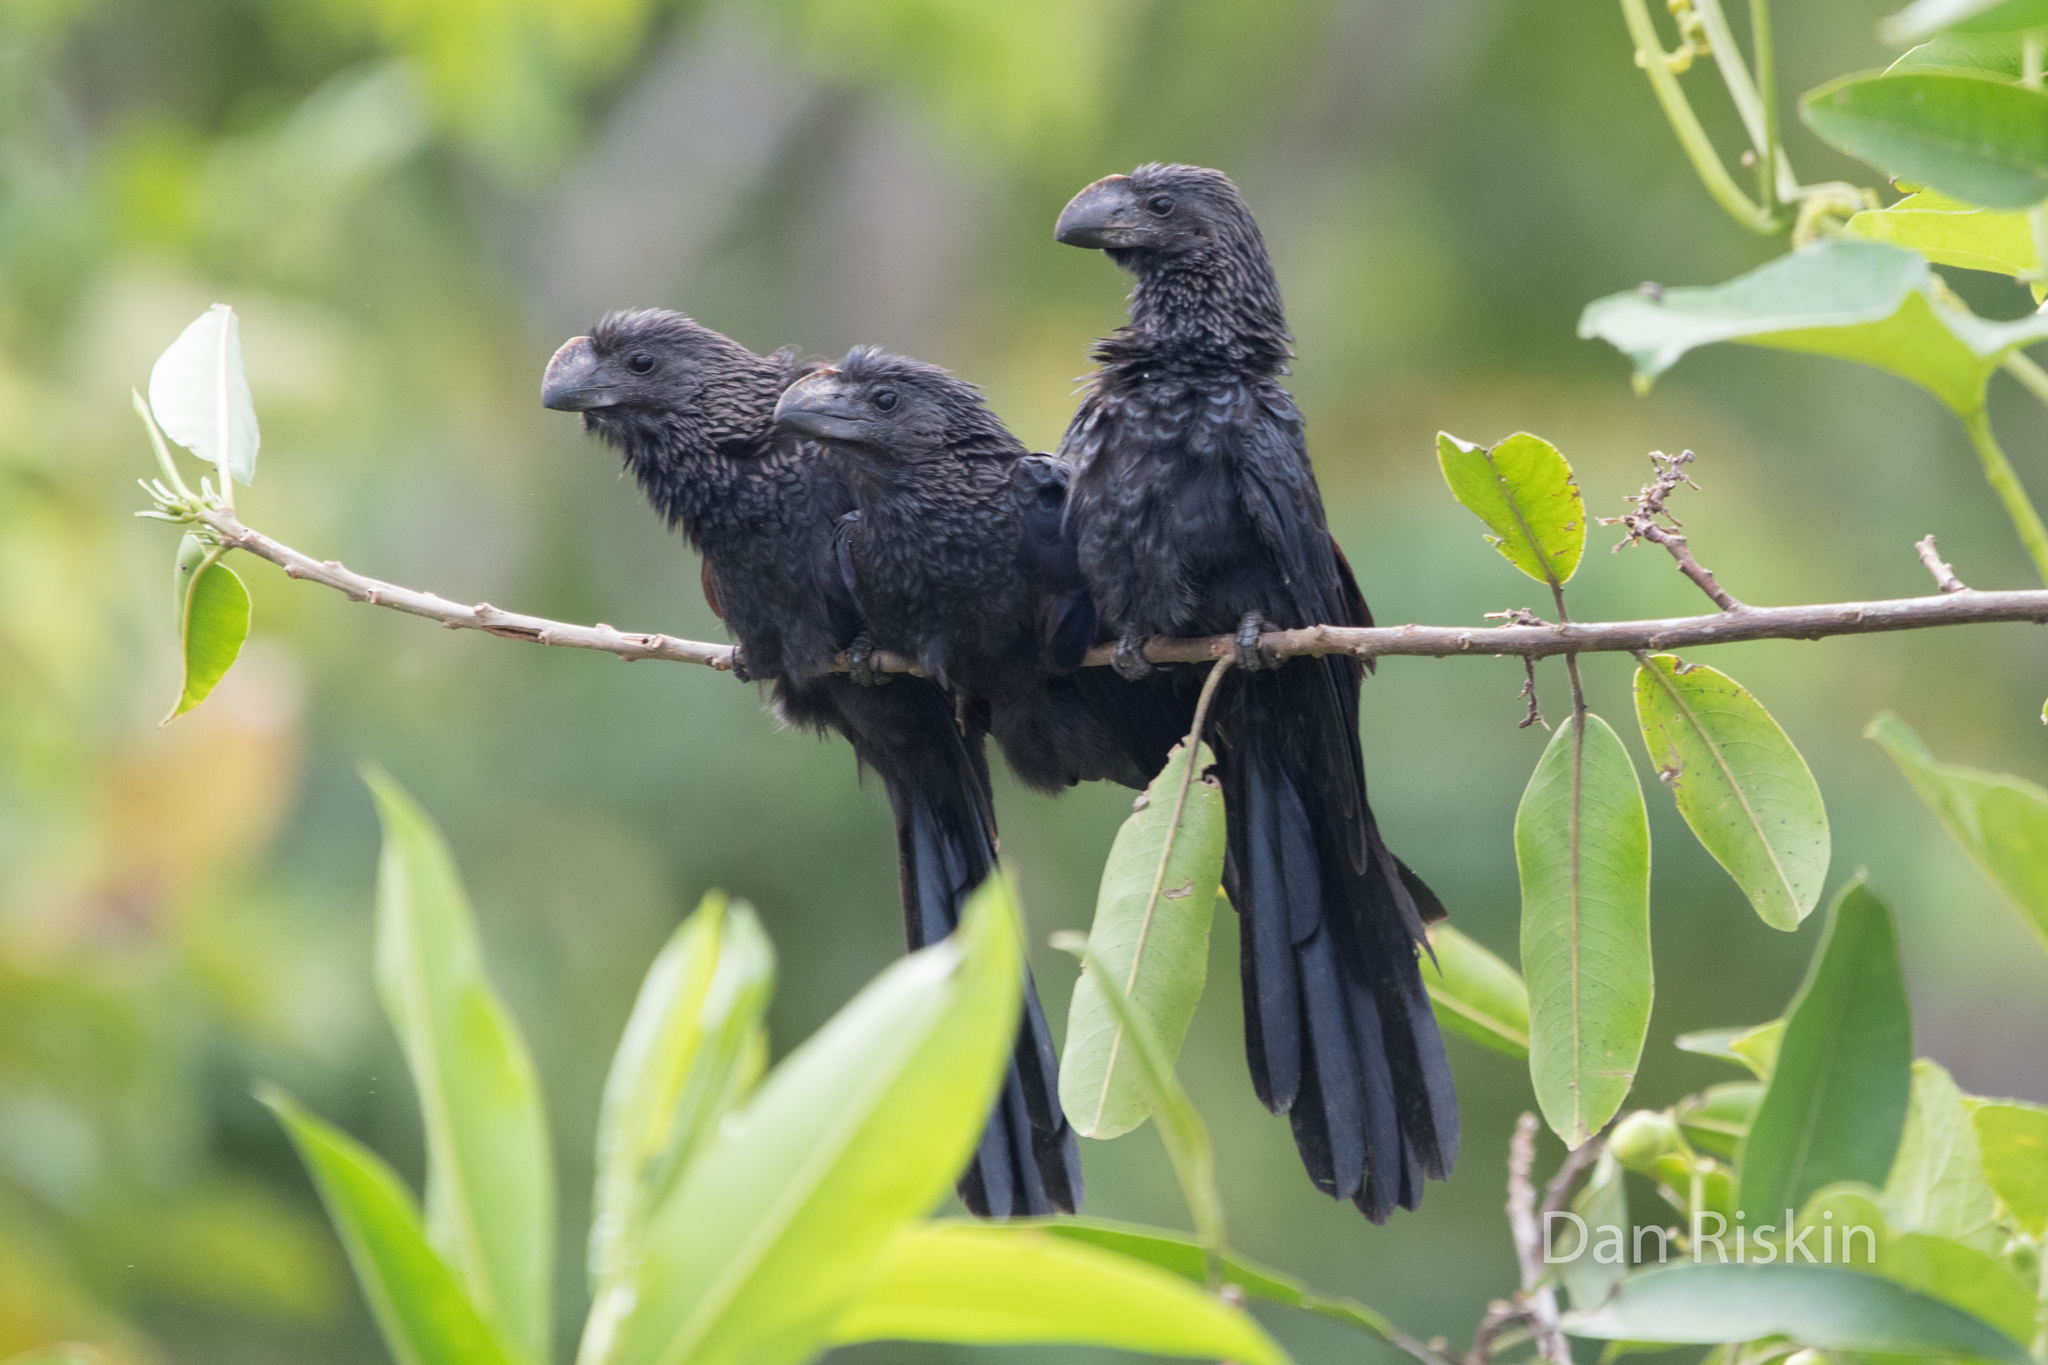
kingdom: Animalia
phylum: Chordata
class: Aves
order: Cuculiformes
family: Cuculidae
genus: Crotophaga
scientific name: Crotophaga ani
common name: Smooth-billed ani
